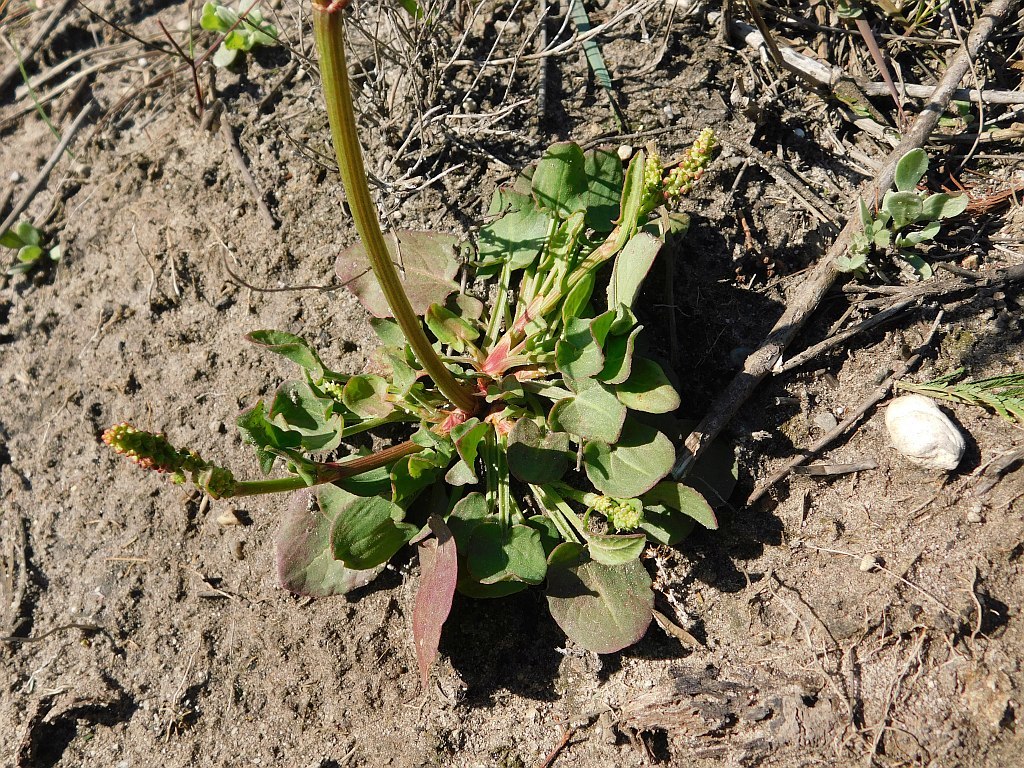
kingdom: Plantae
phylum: Tracheophyta
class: Magnoliopsida
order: Caryophyllales
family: Polygonaceae
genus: Rumex
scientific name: Rumex cordatus
